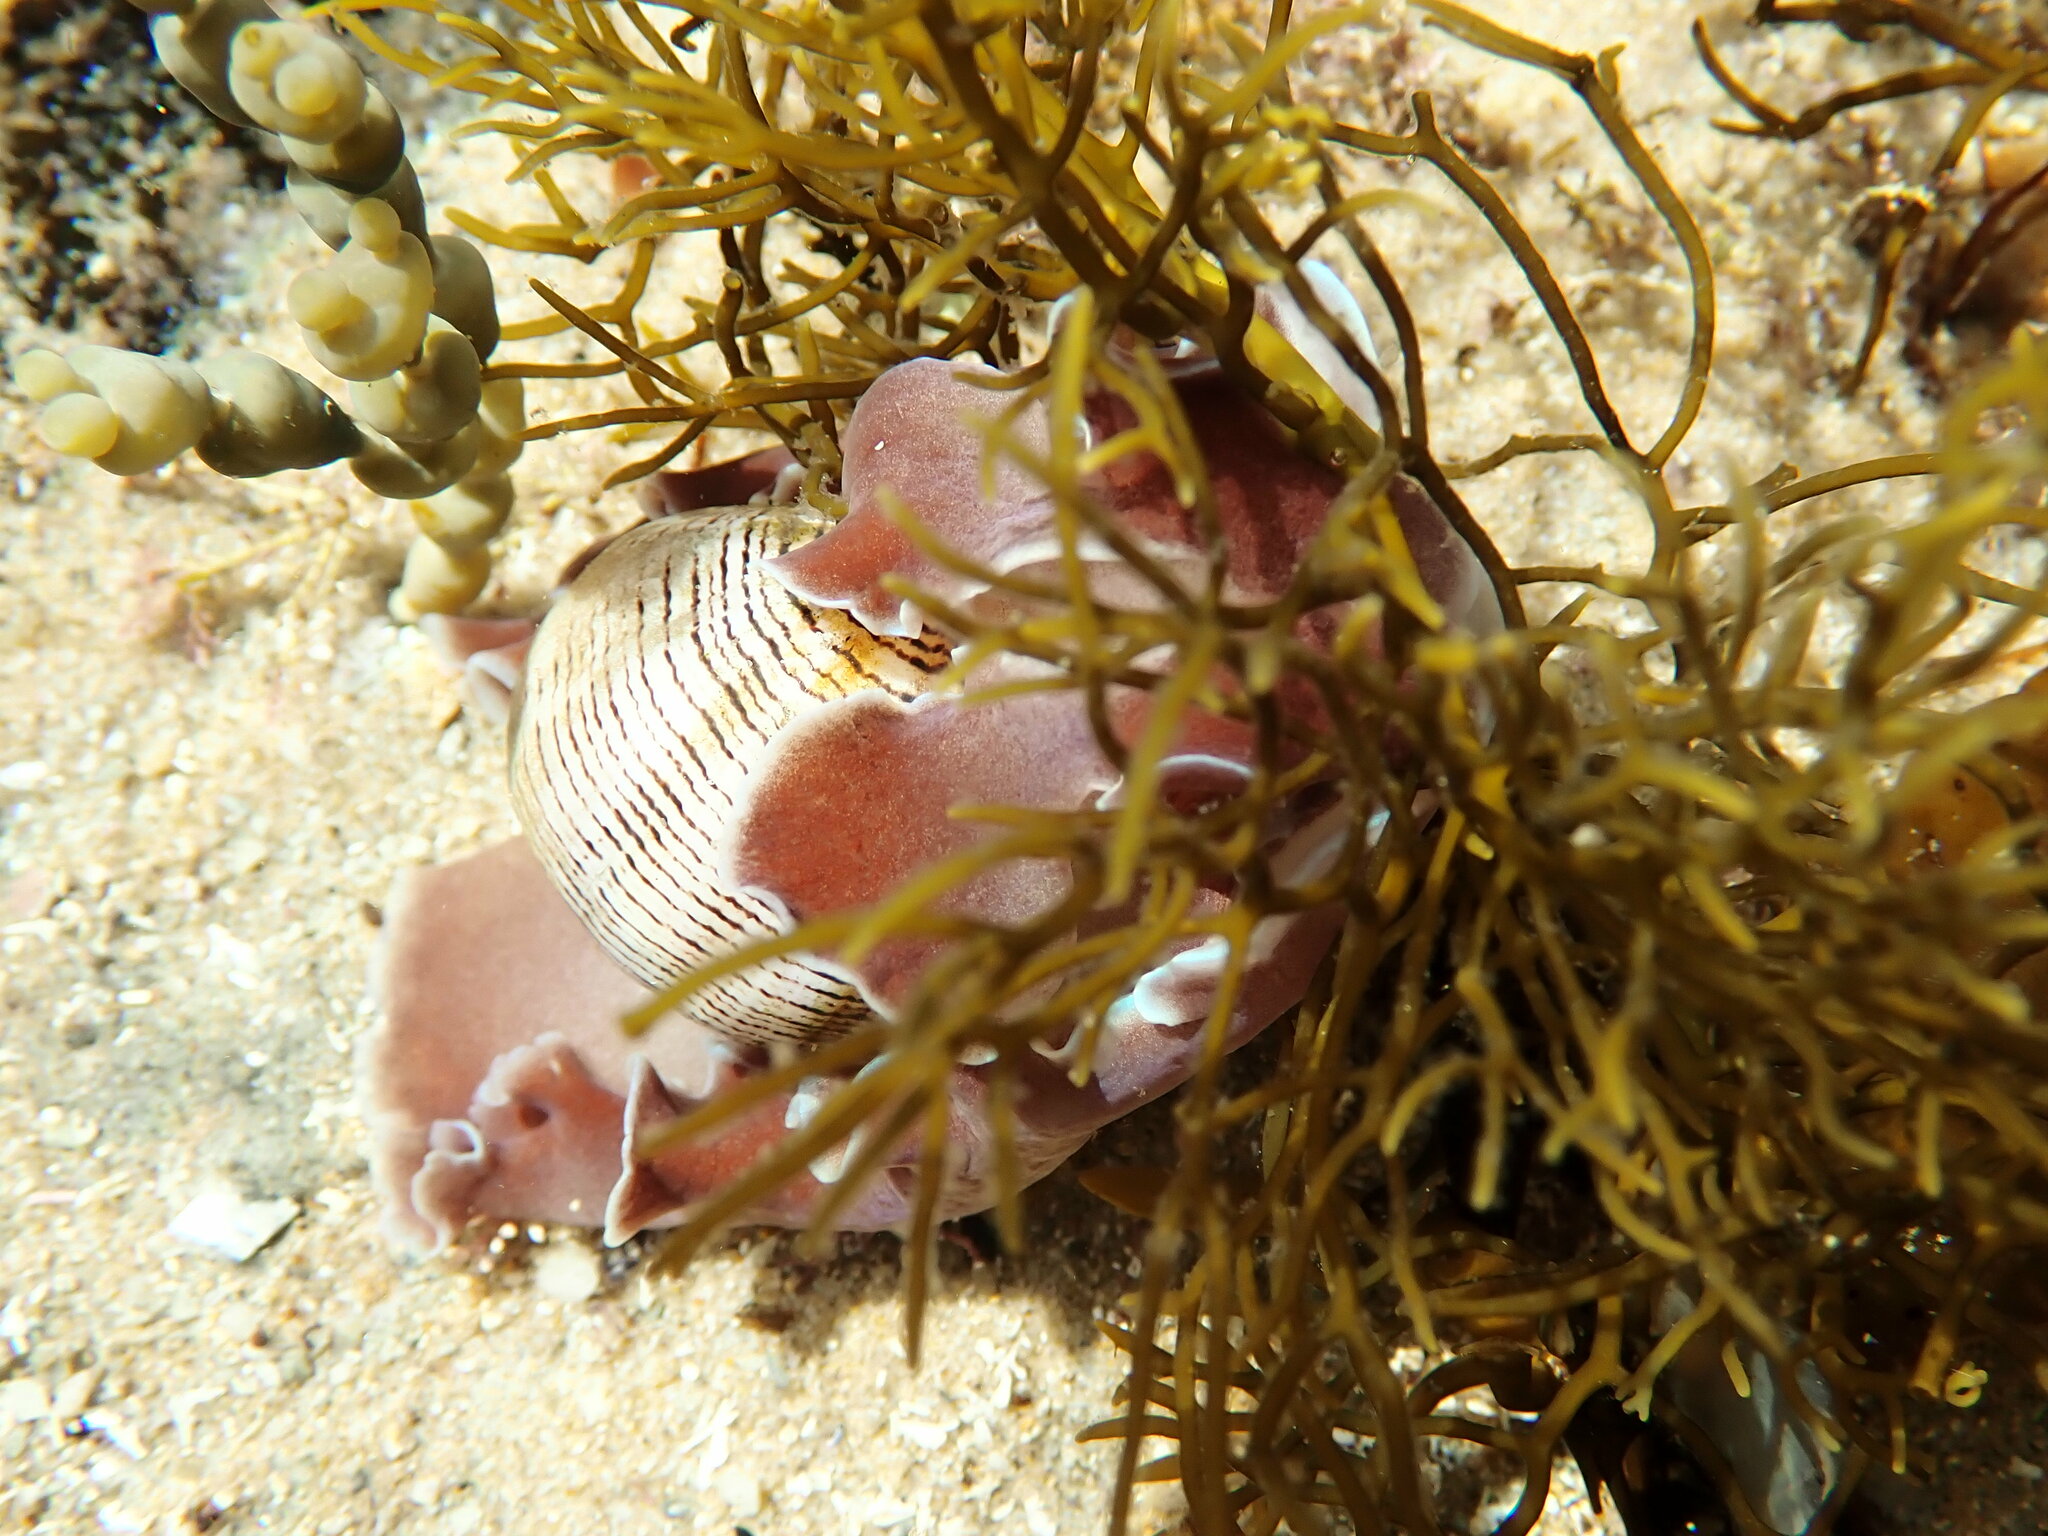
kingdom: Animalia
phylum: Mollusca
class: Gastropoda
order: Cephalaspidea
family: Aplustridae
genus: Hydatina
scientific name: Hydatina physis
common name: Brown-line paperbubble
